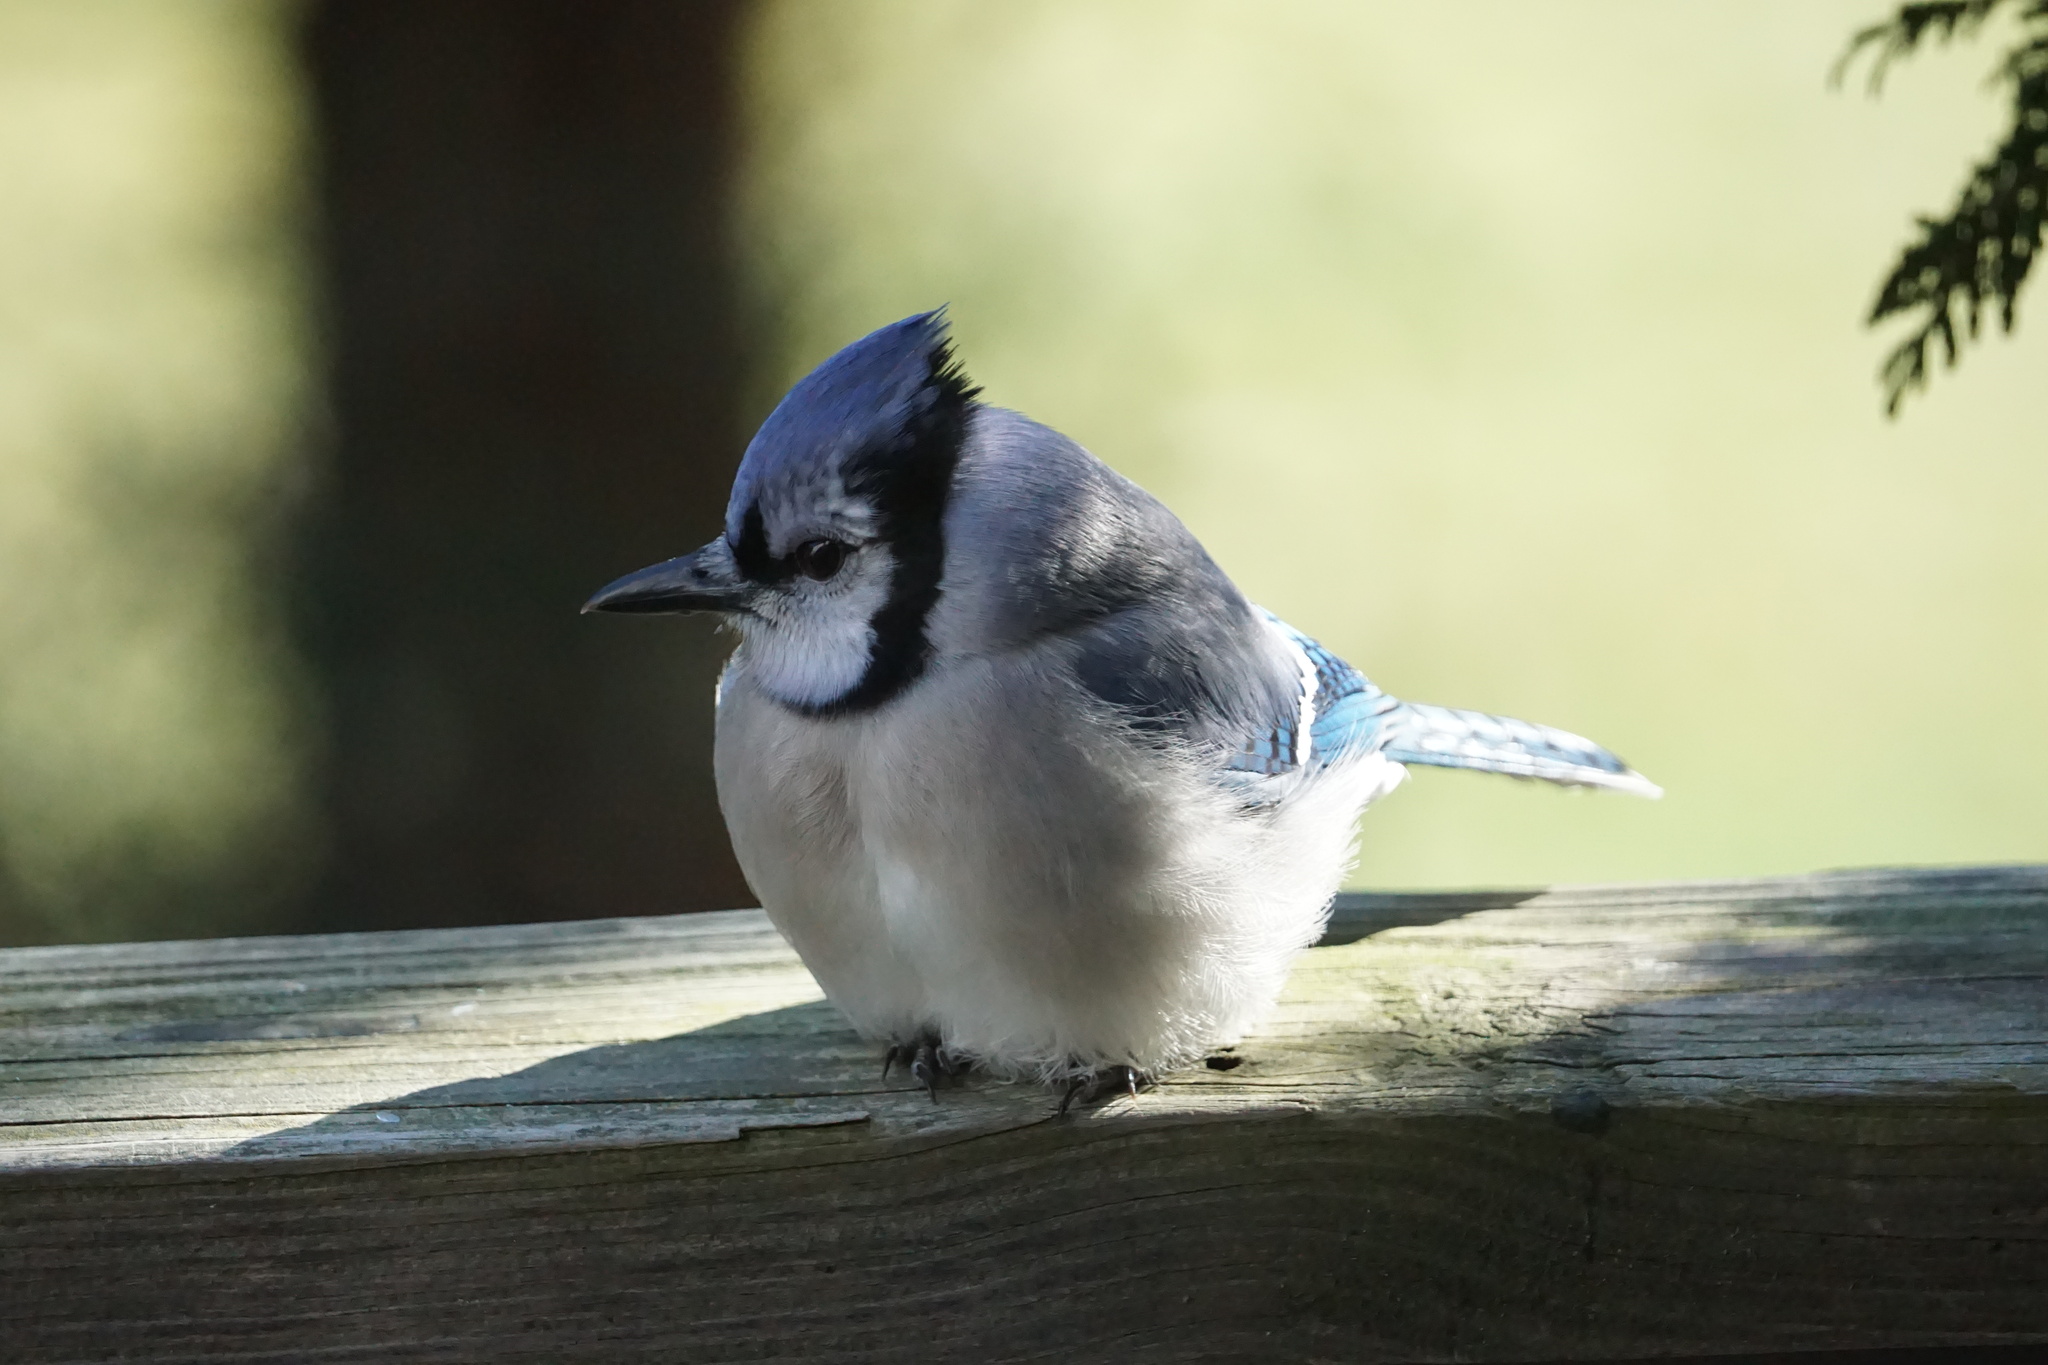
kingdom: Animalia
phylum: Chordata
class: Aves
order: Passeriformes
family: Corvidae
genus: Cyanocitta
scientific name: Cyanocitta cristata
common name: Blue jay
